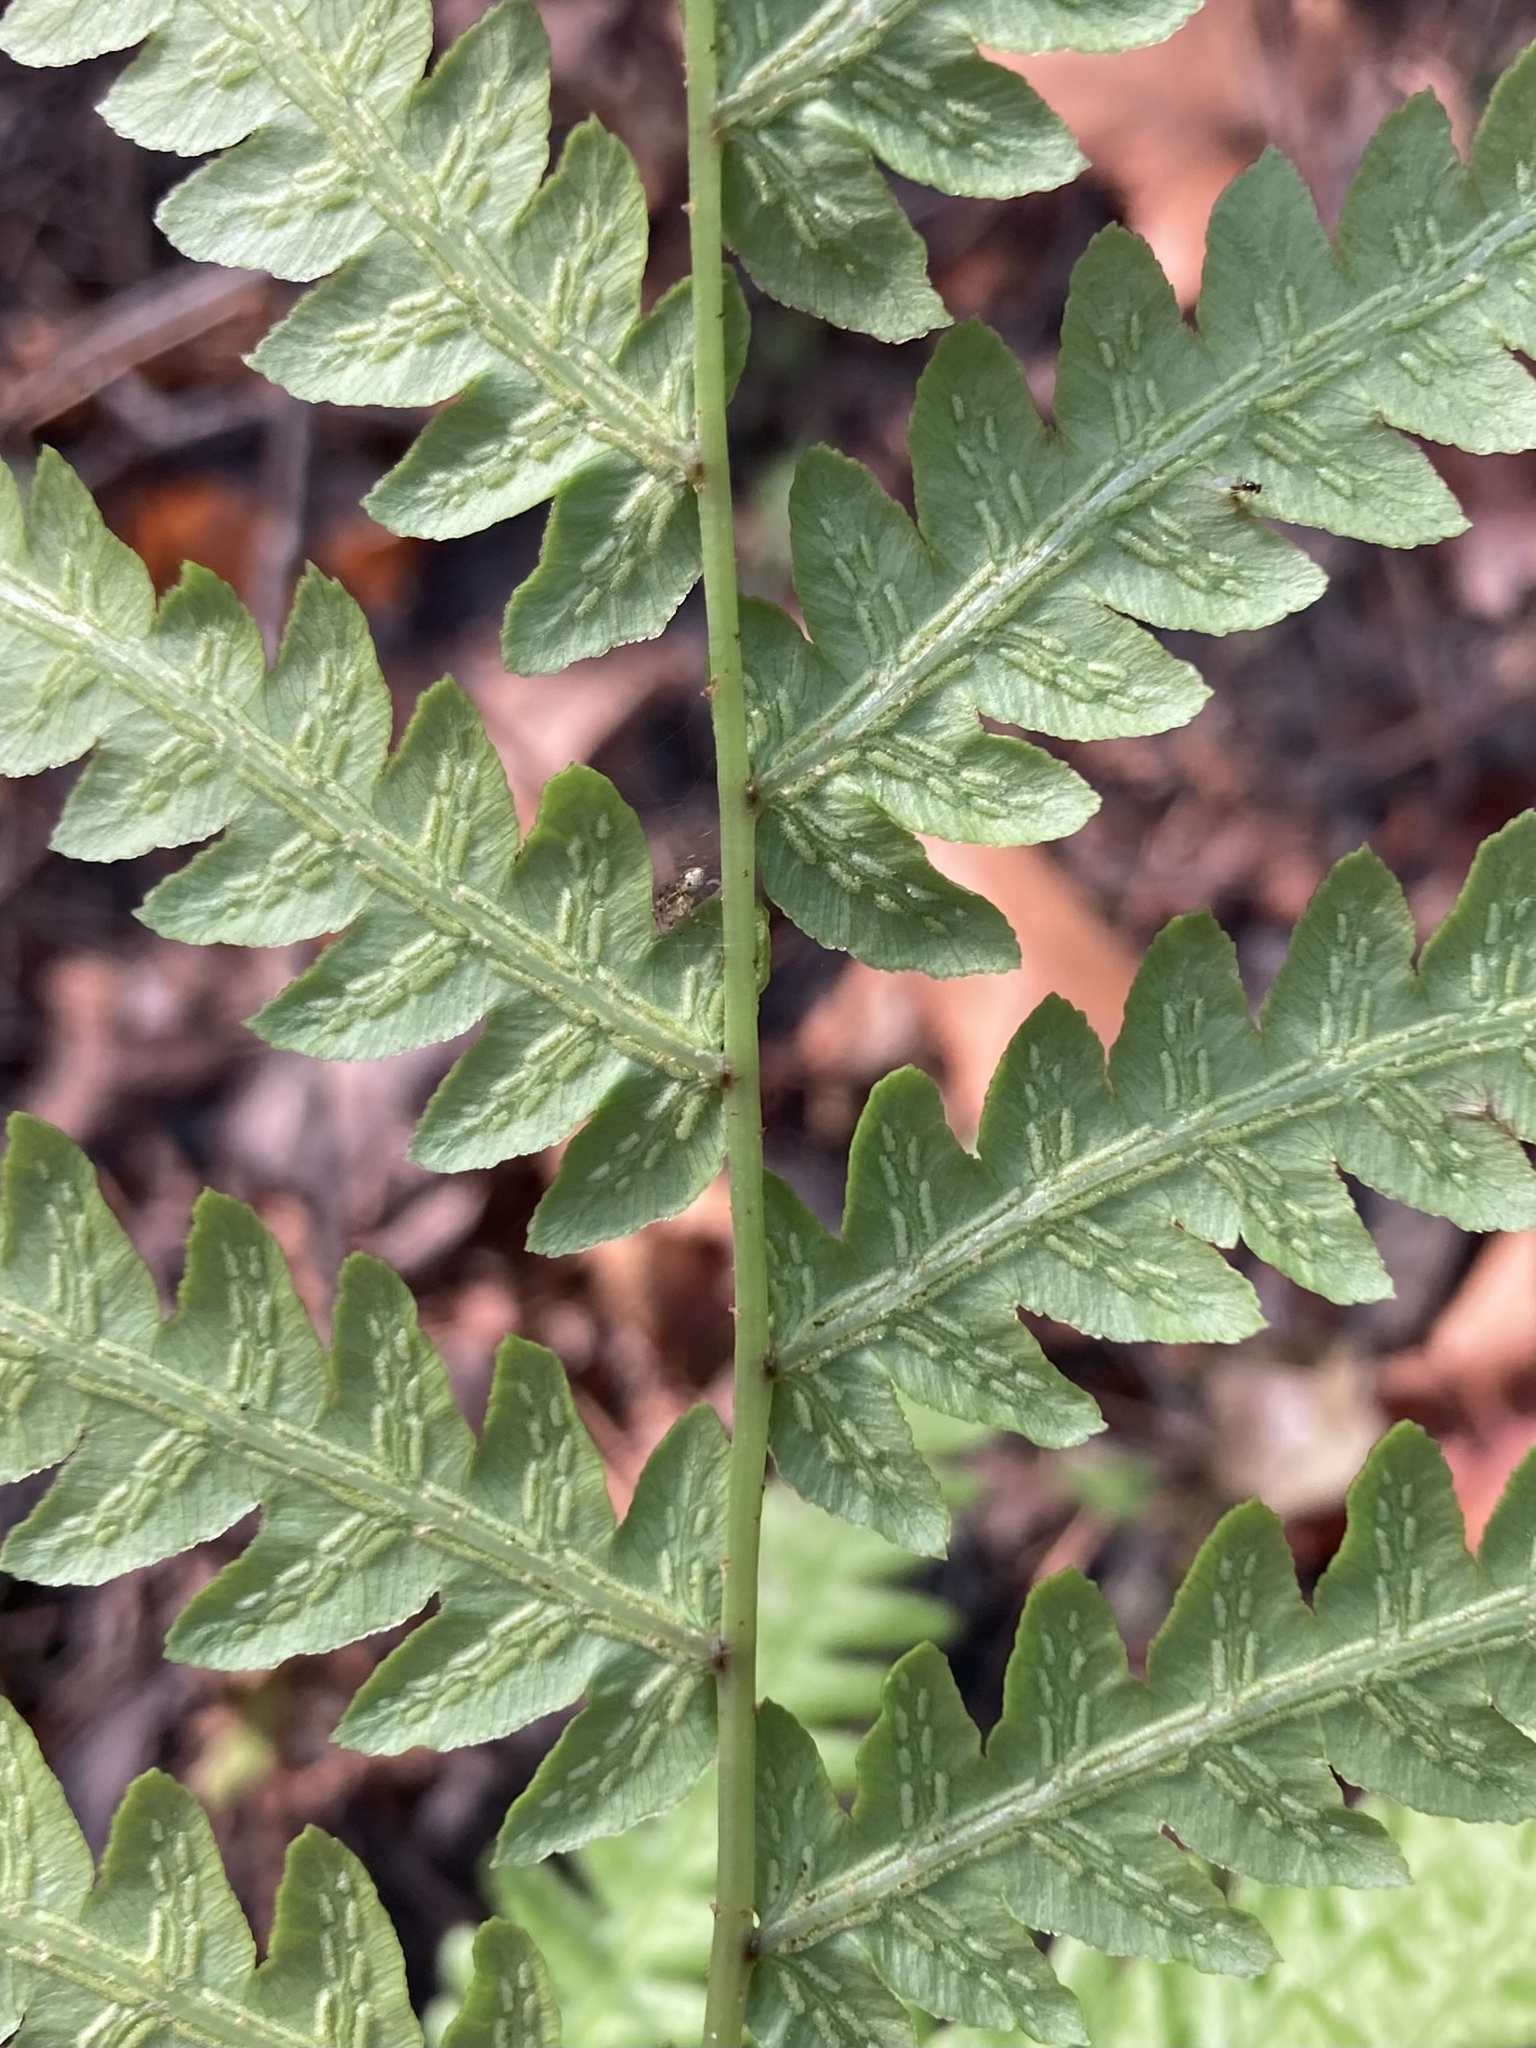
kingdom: Plantae
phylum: Tracheophyta
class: Polypodiopsida
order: Polypodiales
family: Blechnaceae
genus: Anchistea
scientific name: Anchistea virginica
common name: Virginia chain fern
